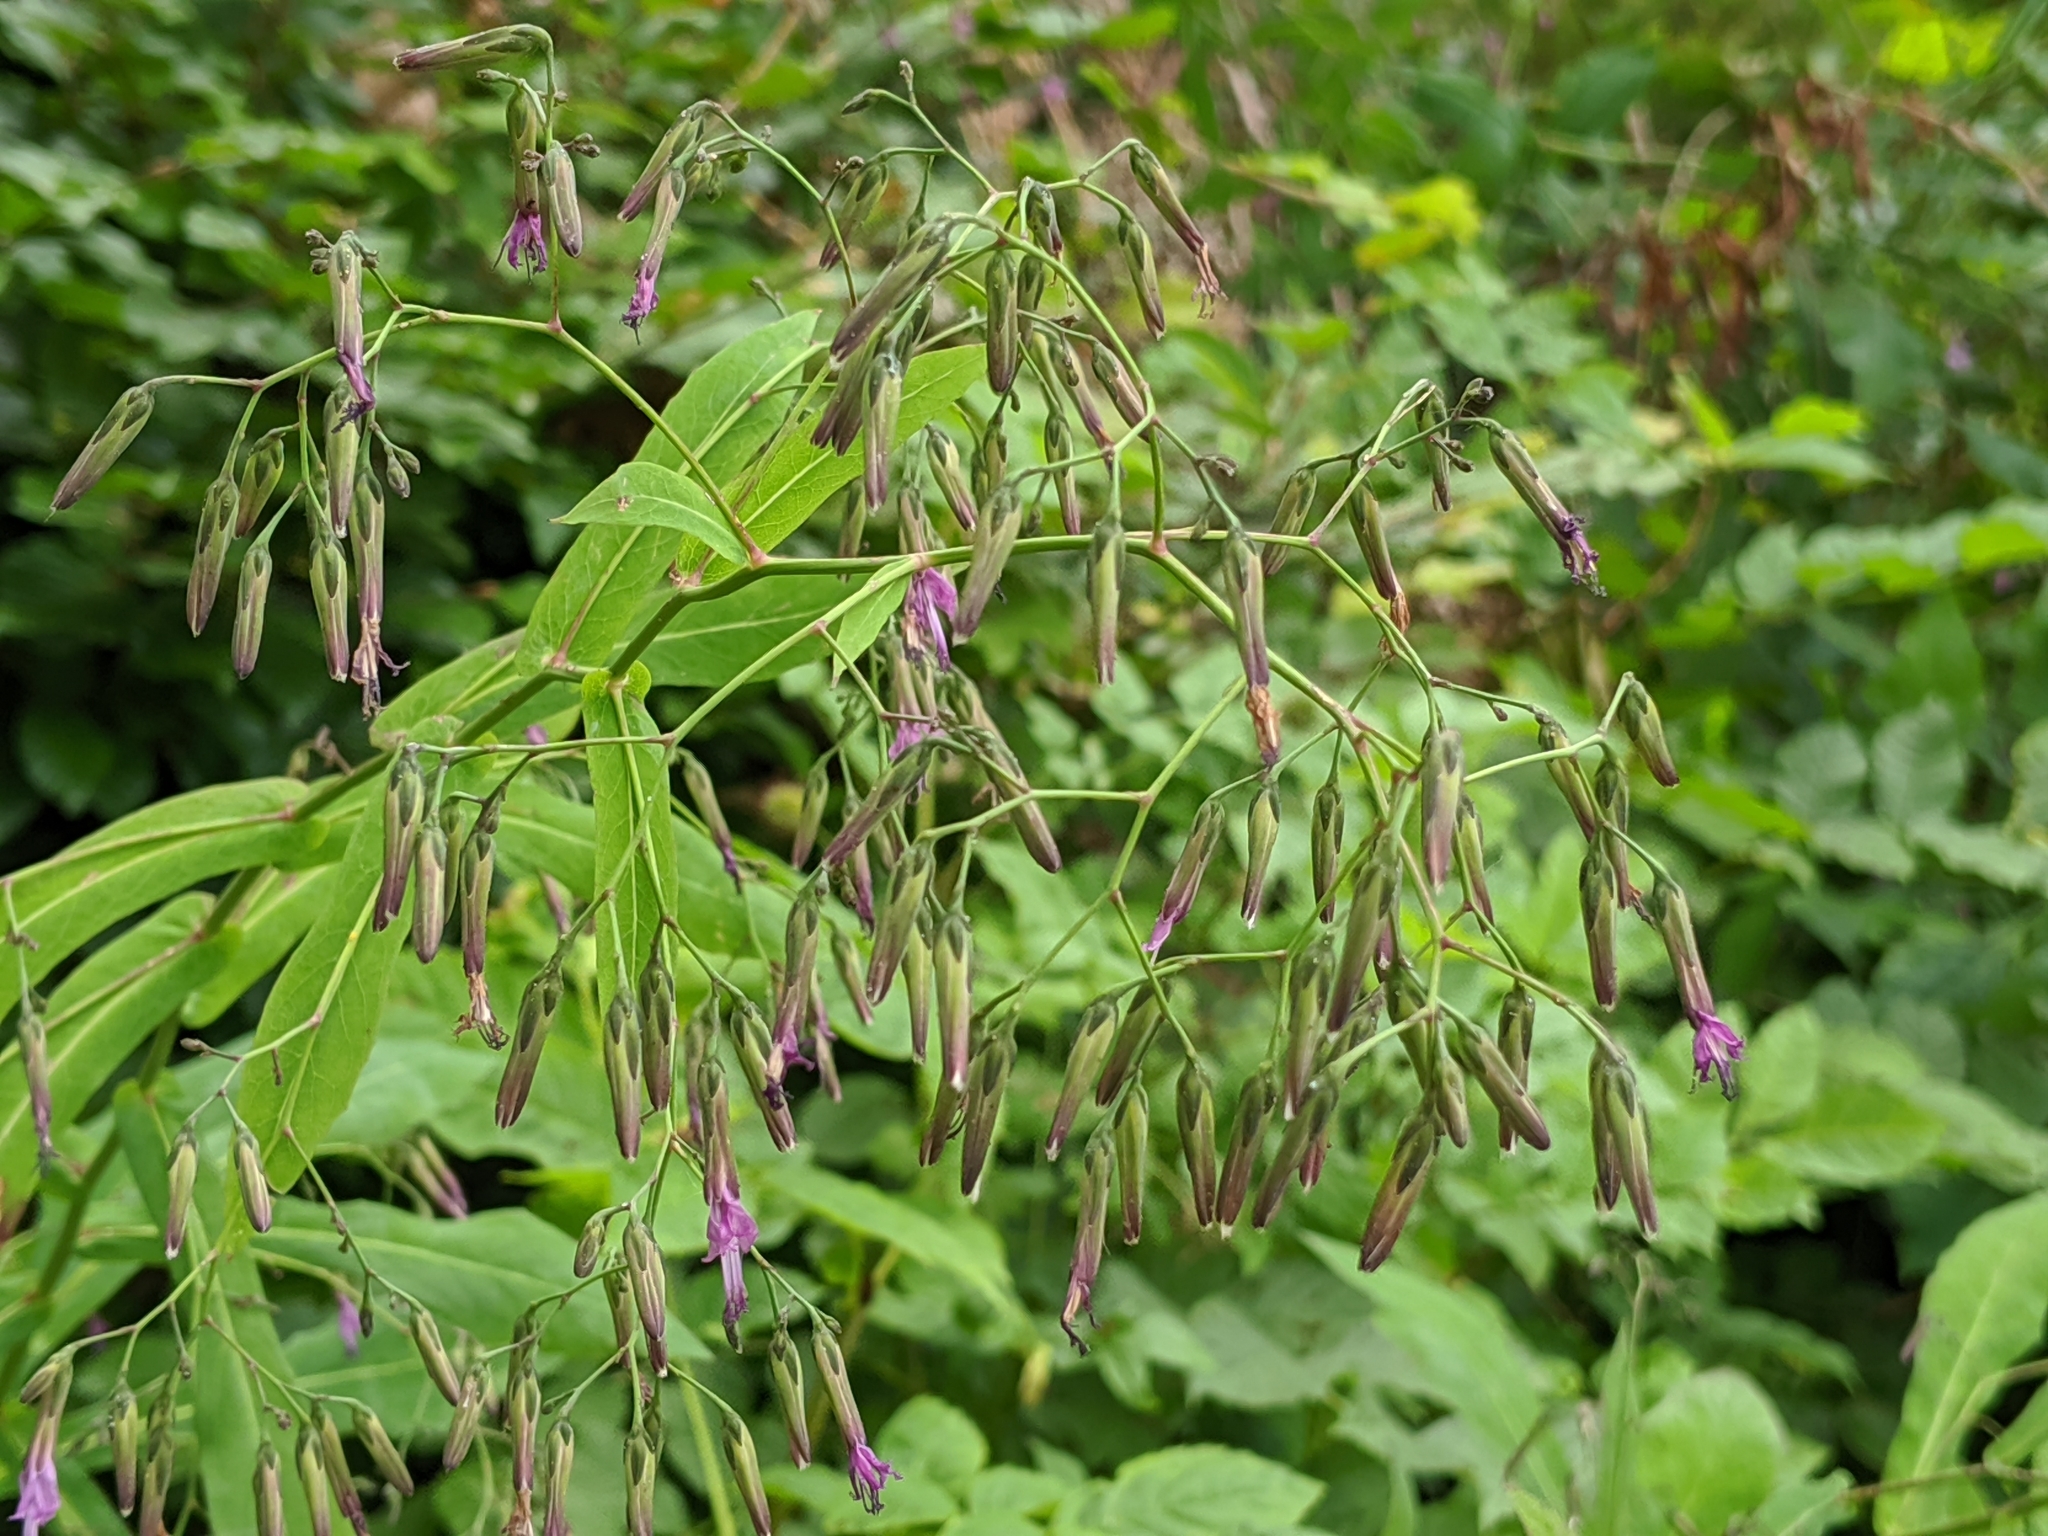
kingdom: Plantae
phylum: Tracheophyta
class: Magnoliopsida
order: Asterales
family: Asteraceae
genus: Prenanthes
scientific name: Prenanthes purpurea
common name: Purple lettuce
